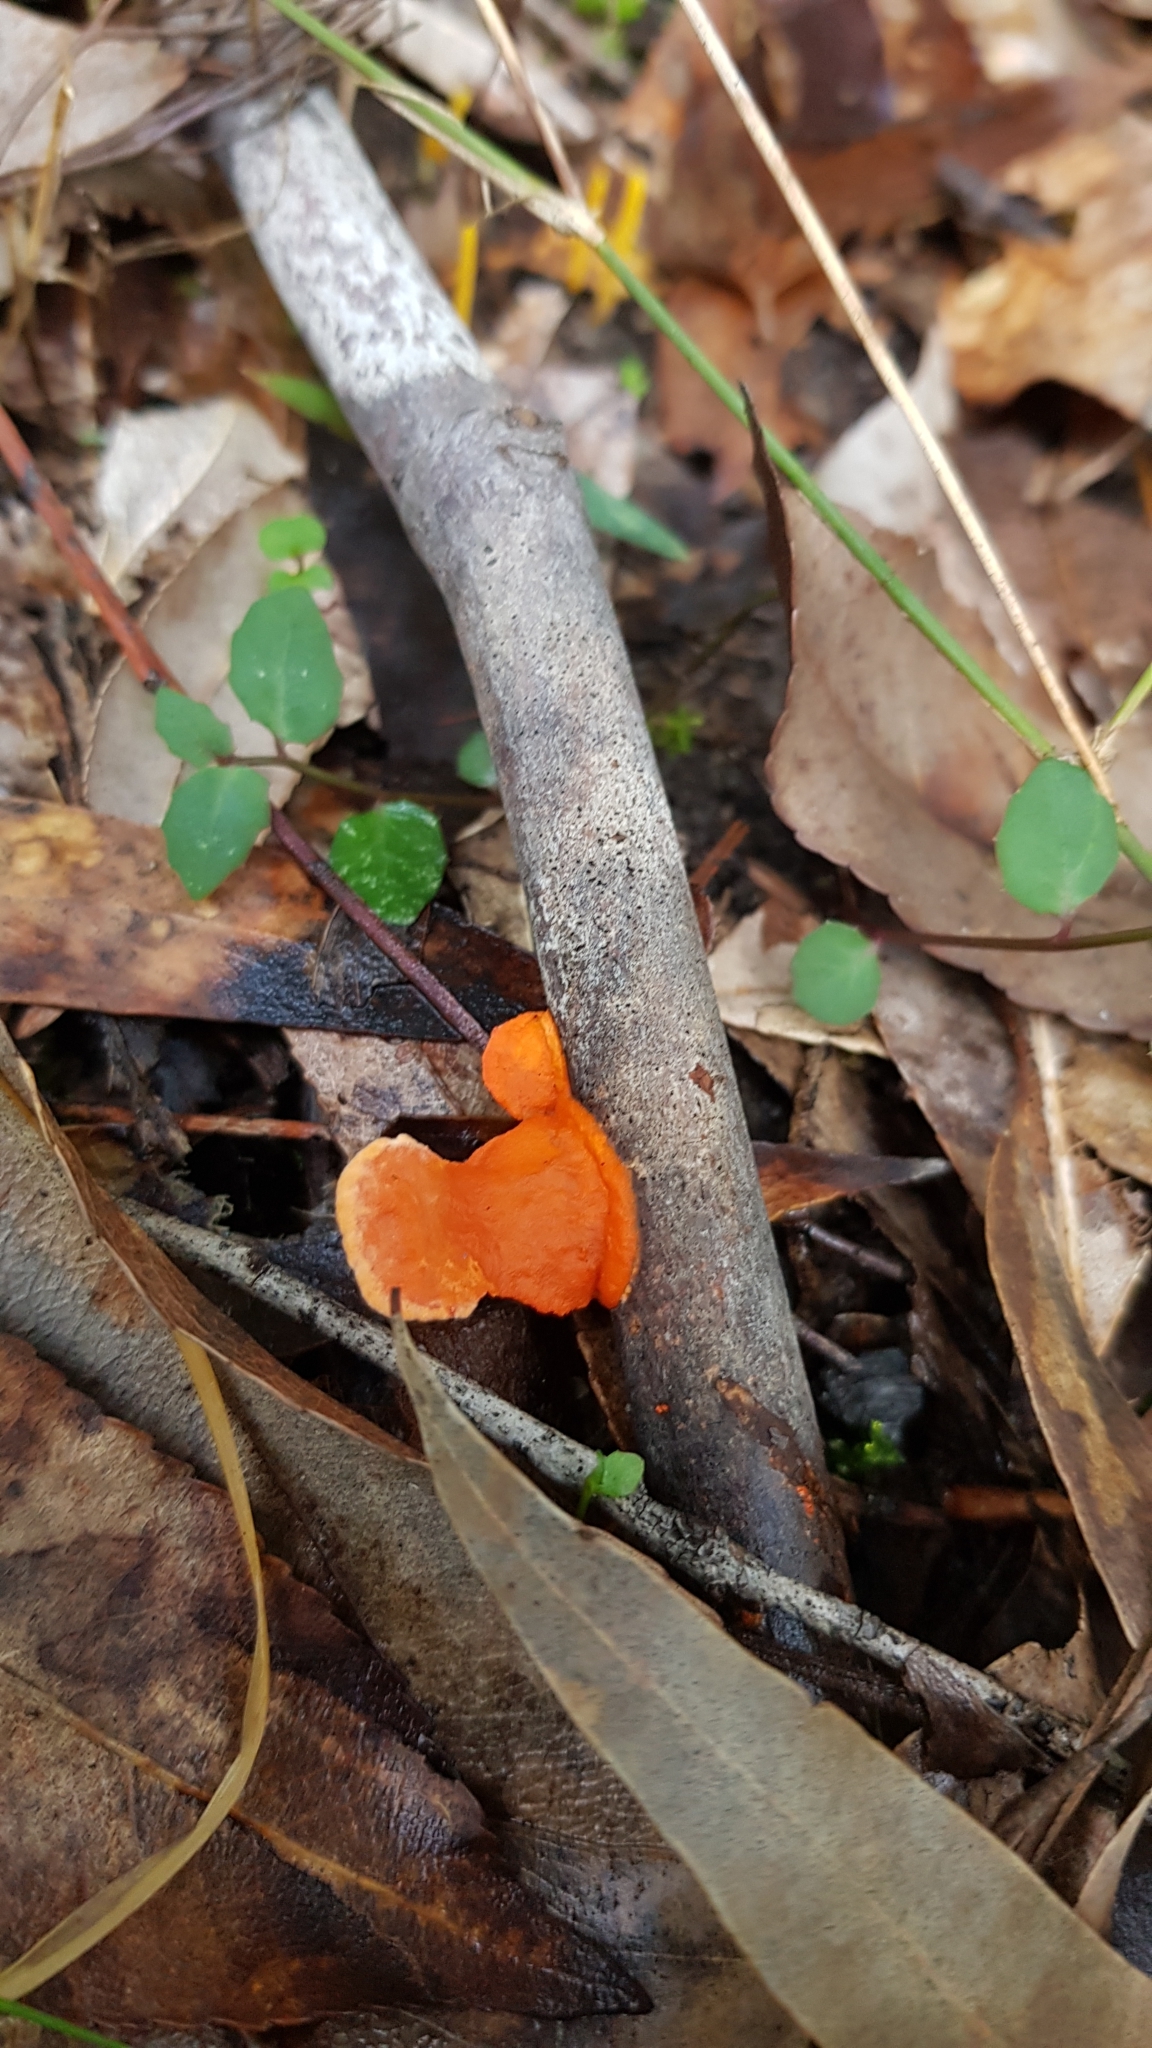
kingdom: Fungi
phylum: Basidiomycota
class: Agaricomycetes
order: Polyporales
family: Polyporaceae
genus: Trametes
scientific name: Trametes coccinea
